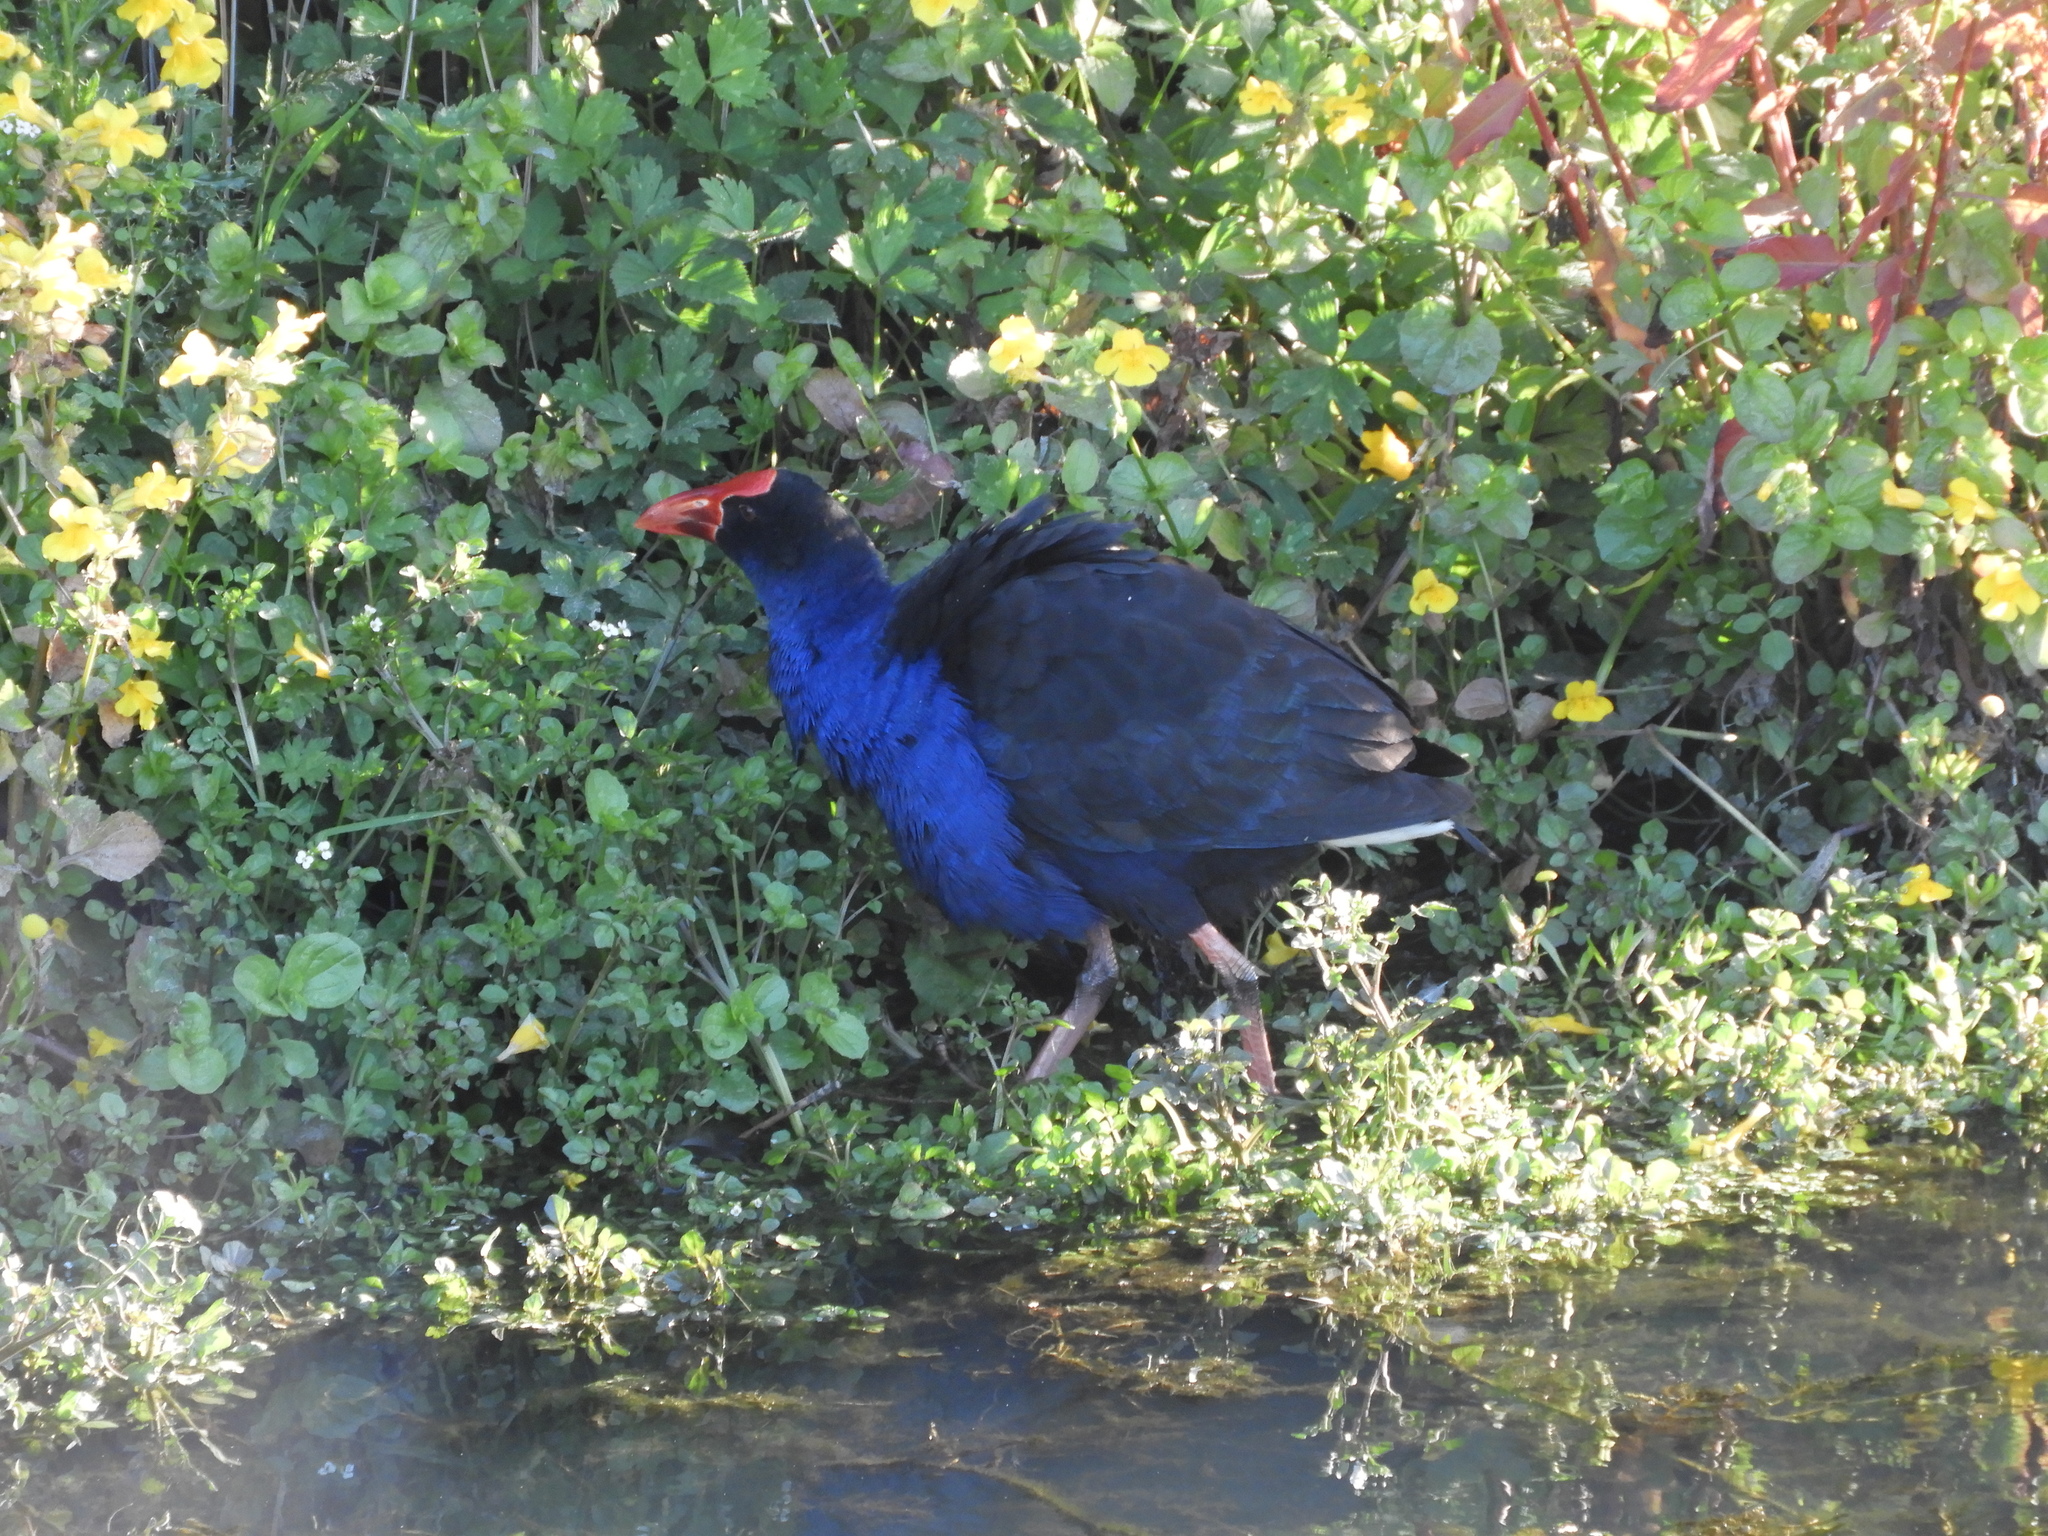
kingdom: Animalia
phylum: Chordata
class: Aves
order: Gruiformes
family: Rallidae
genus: Porphyrio
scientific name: Porphyrio melanotus
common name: Australasian swamphen
